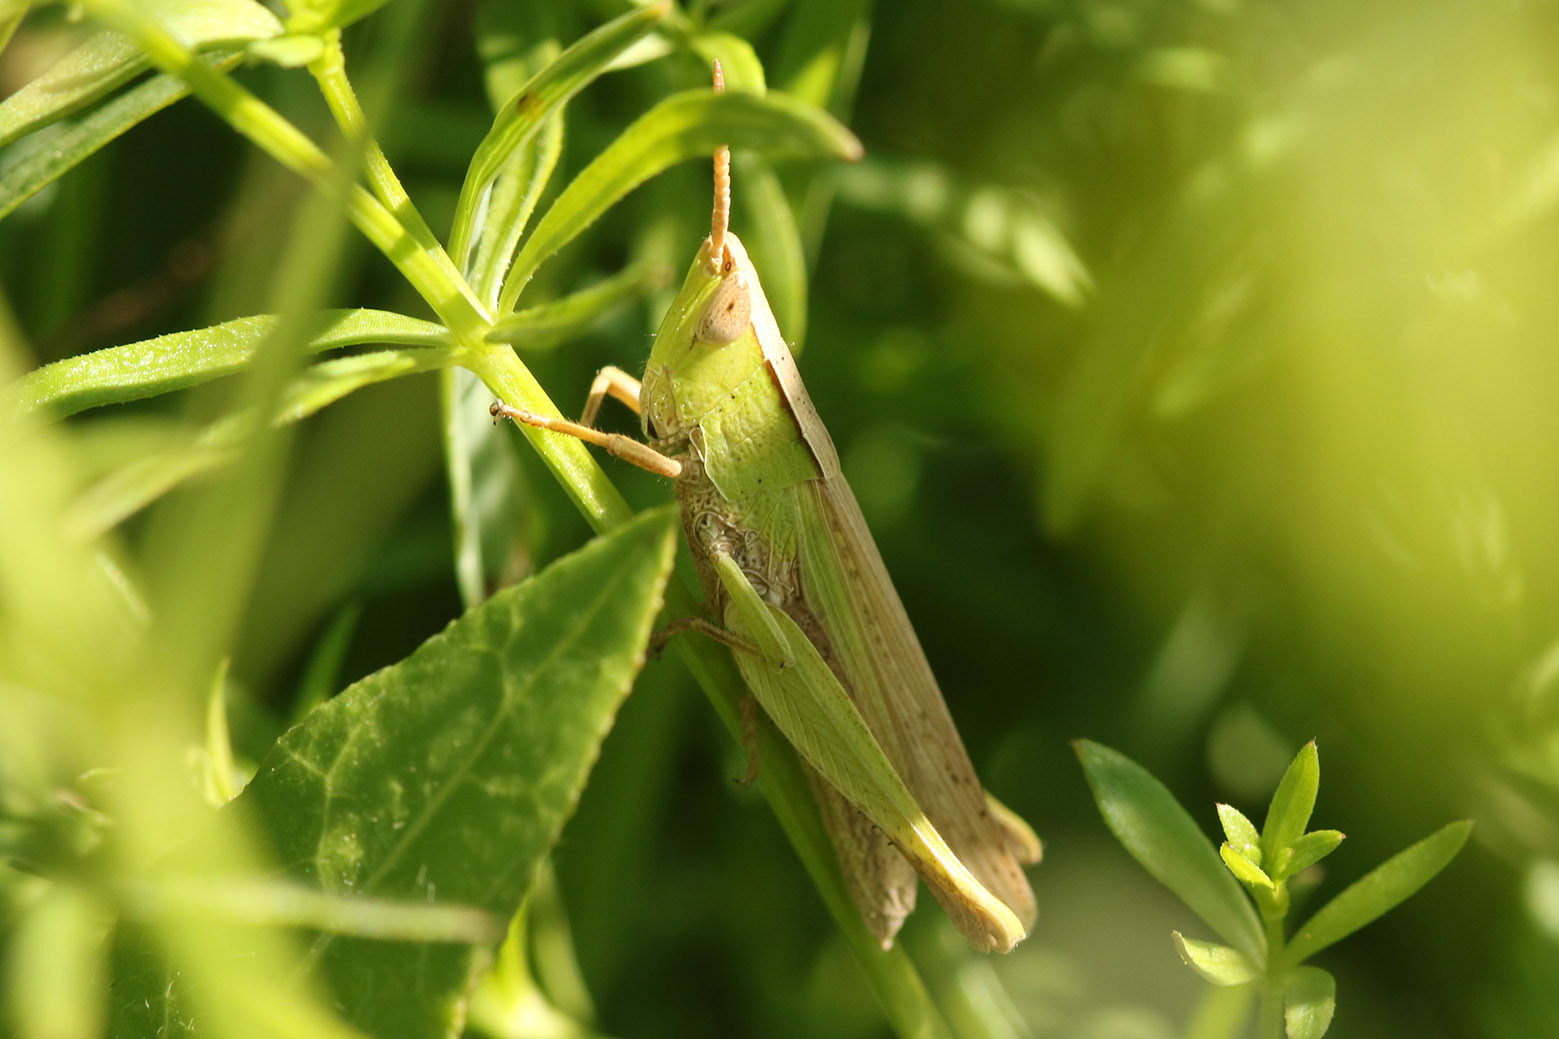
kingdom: Animalia
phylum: Arthropoda
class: Insecta
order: Orthoptera
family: Acrididae
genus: Laplatacris
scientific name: Laplatacris dispar
